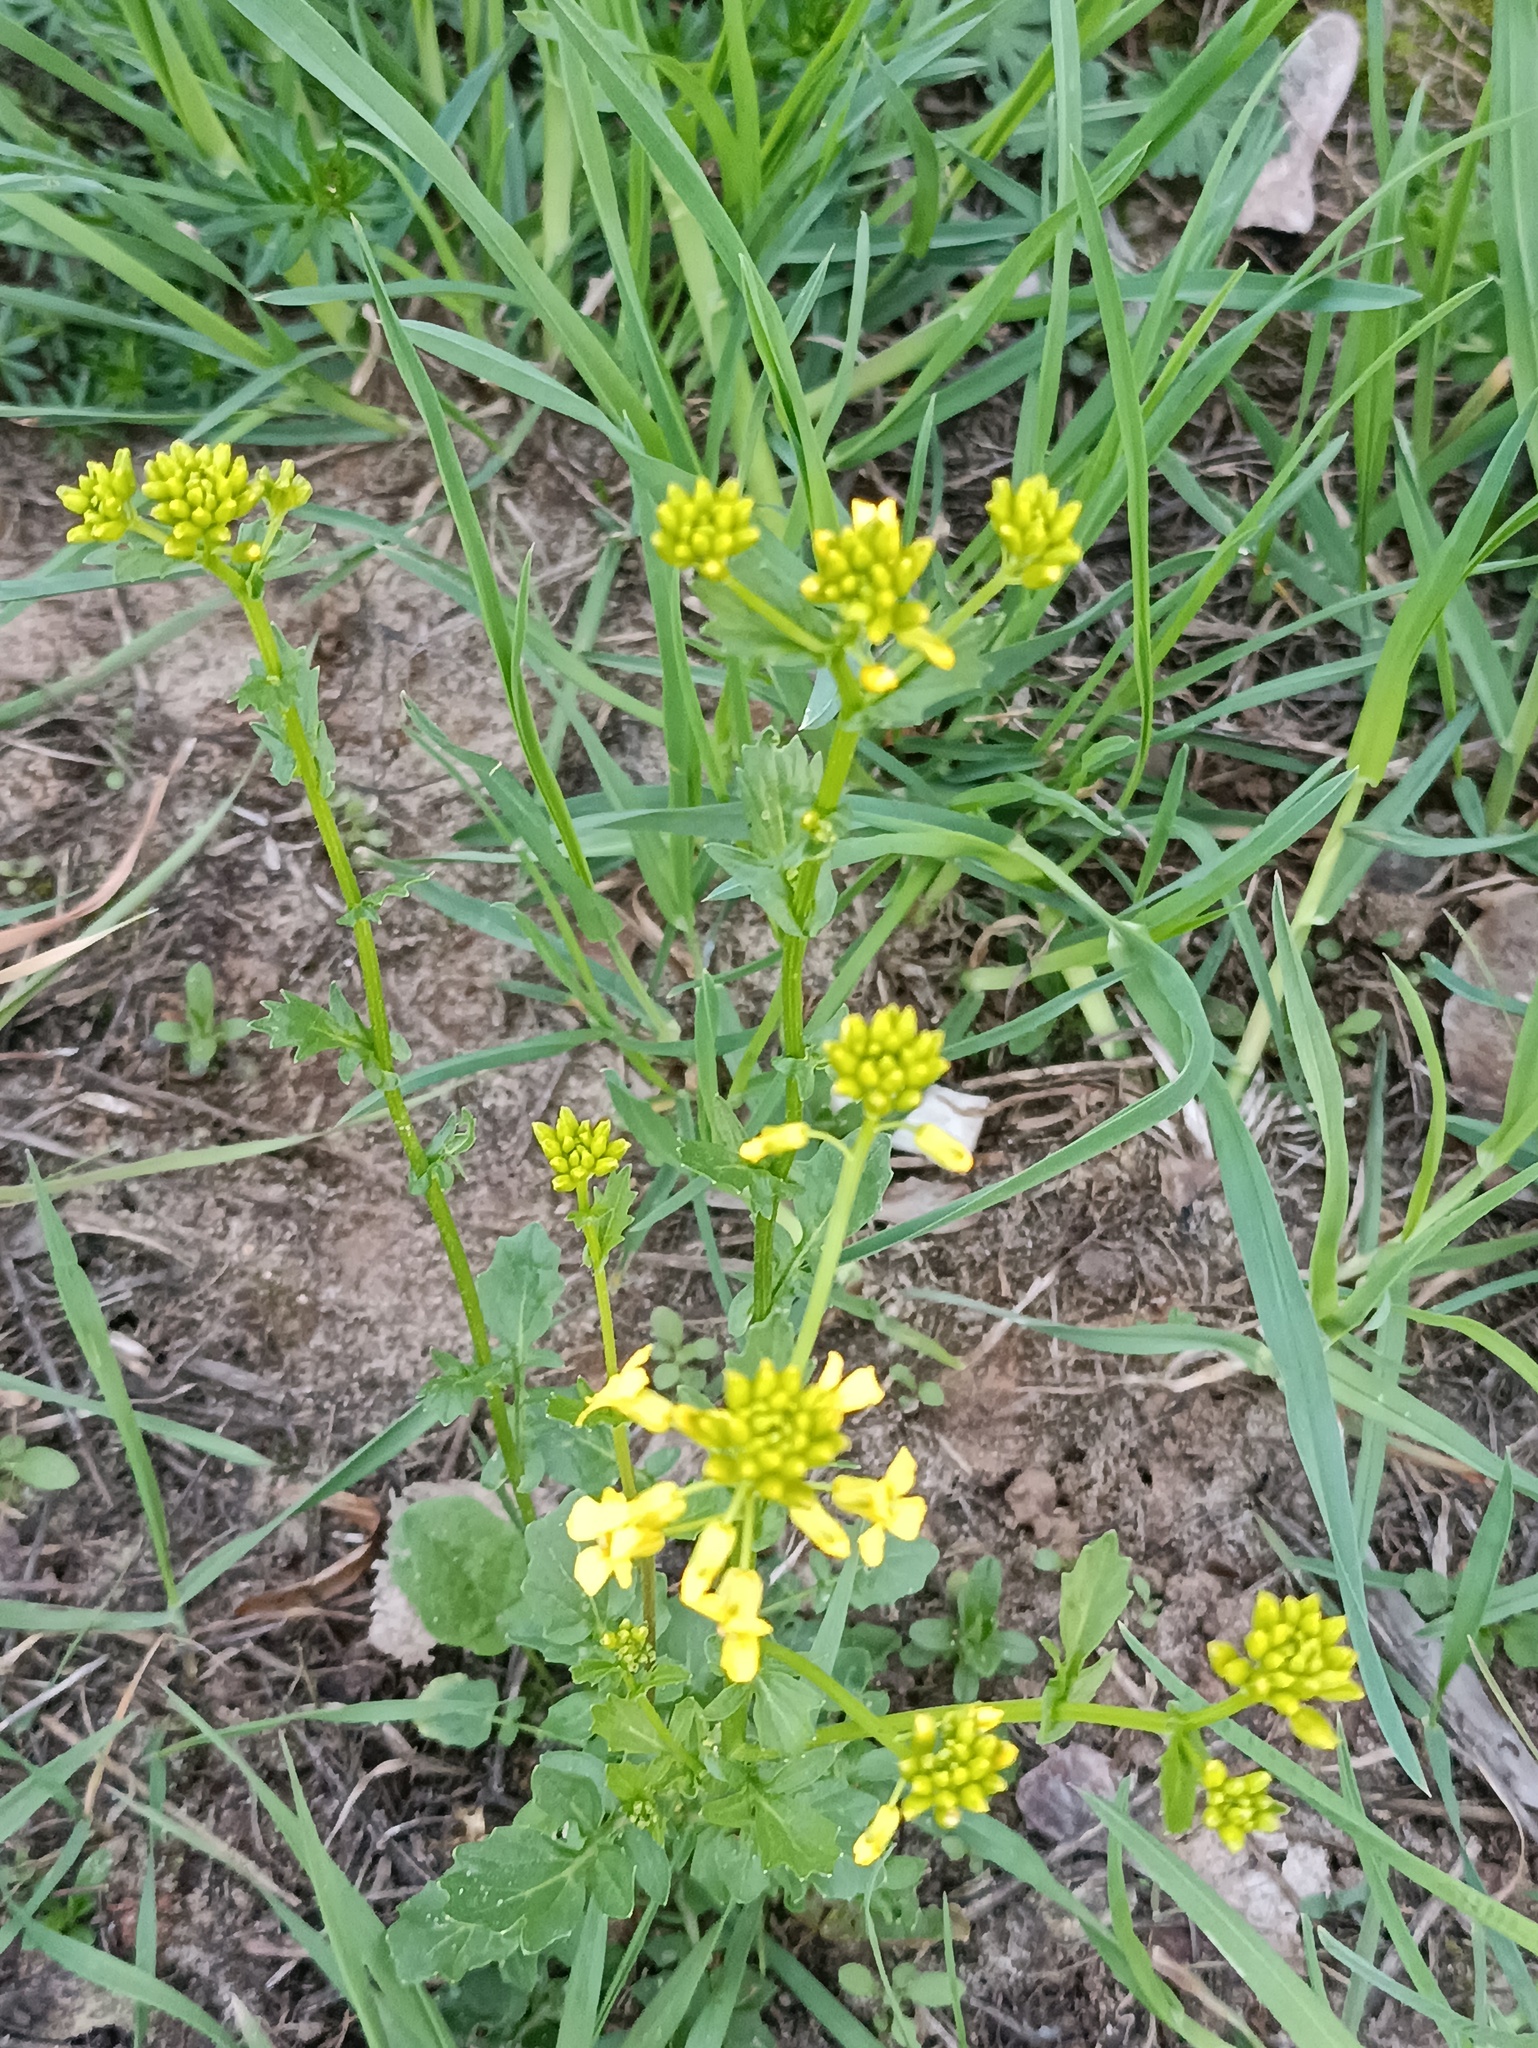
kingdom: Plantae
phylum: Tracheophyta
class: Magnoliopsida
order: Brassicales
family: Brassicaceae
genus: Barbarea
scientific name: Barbarea vulgaris
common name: Cressy-greens
